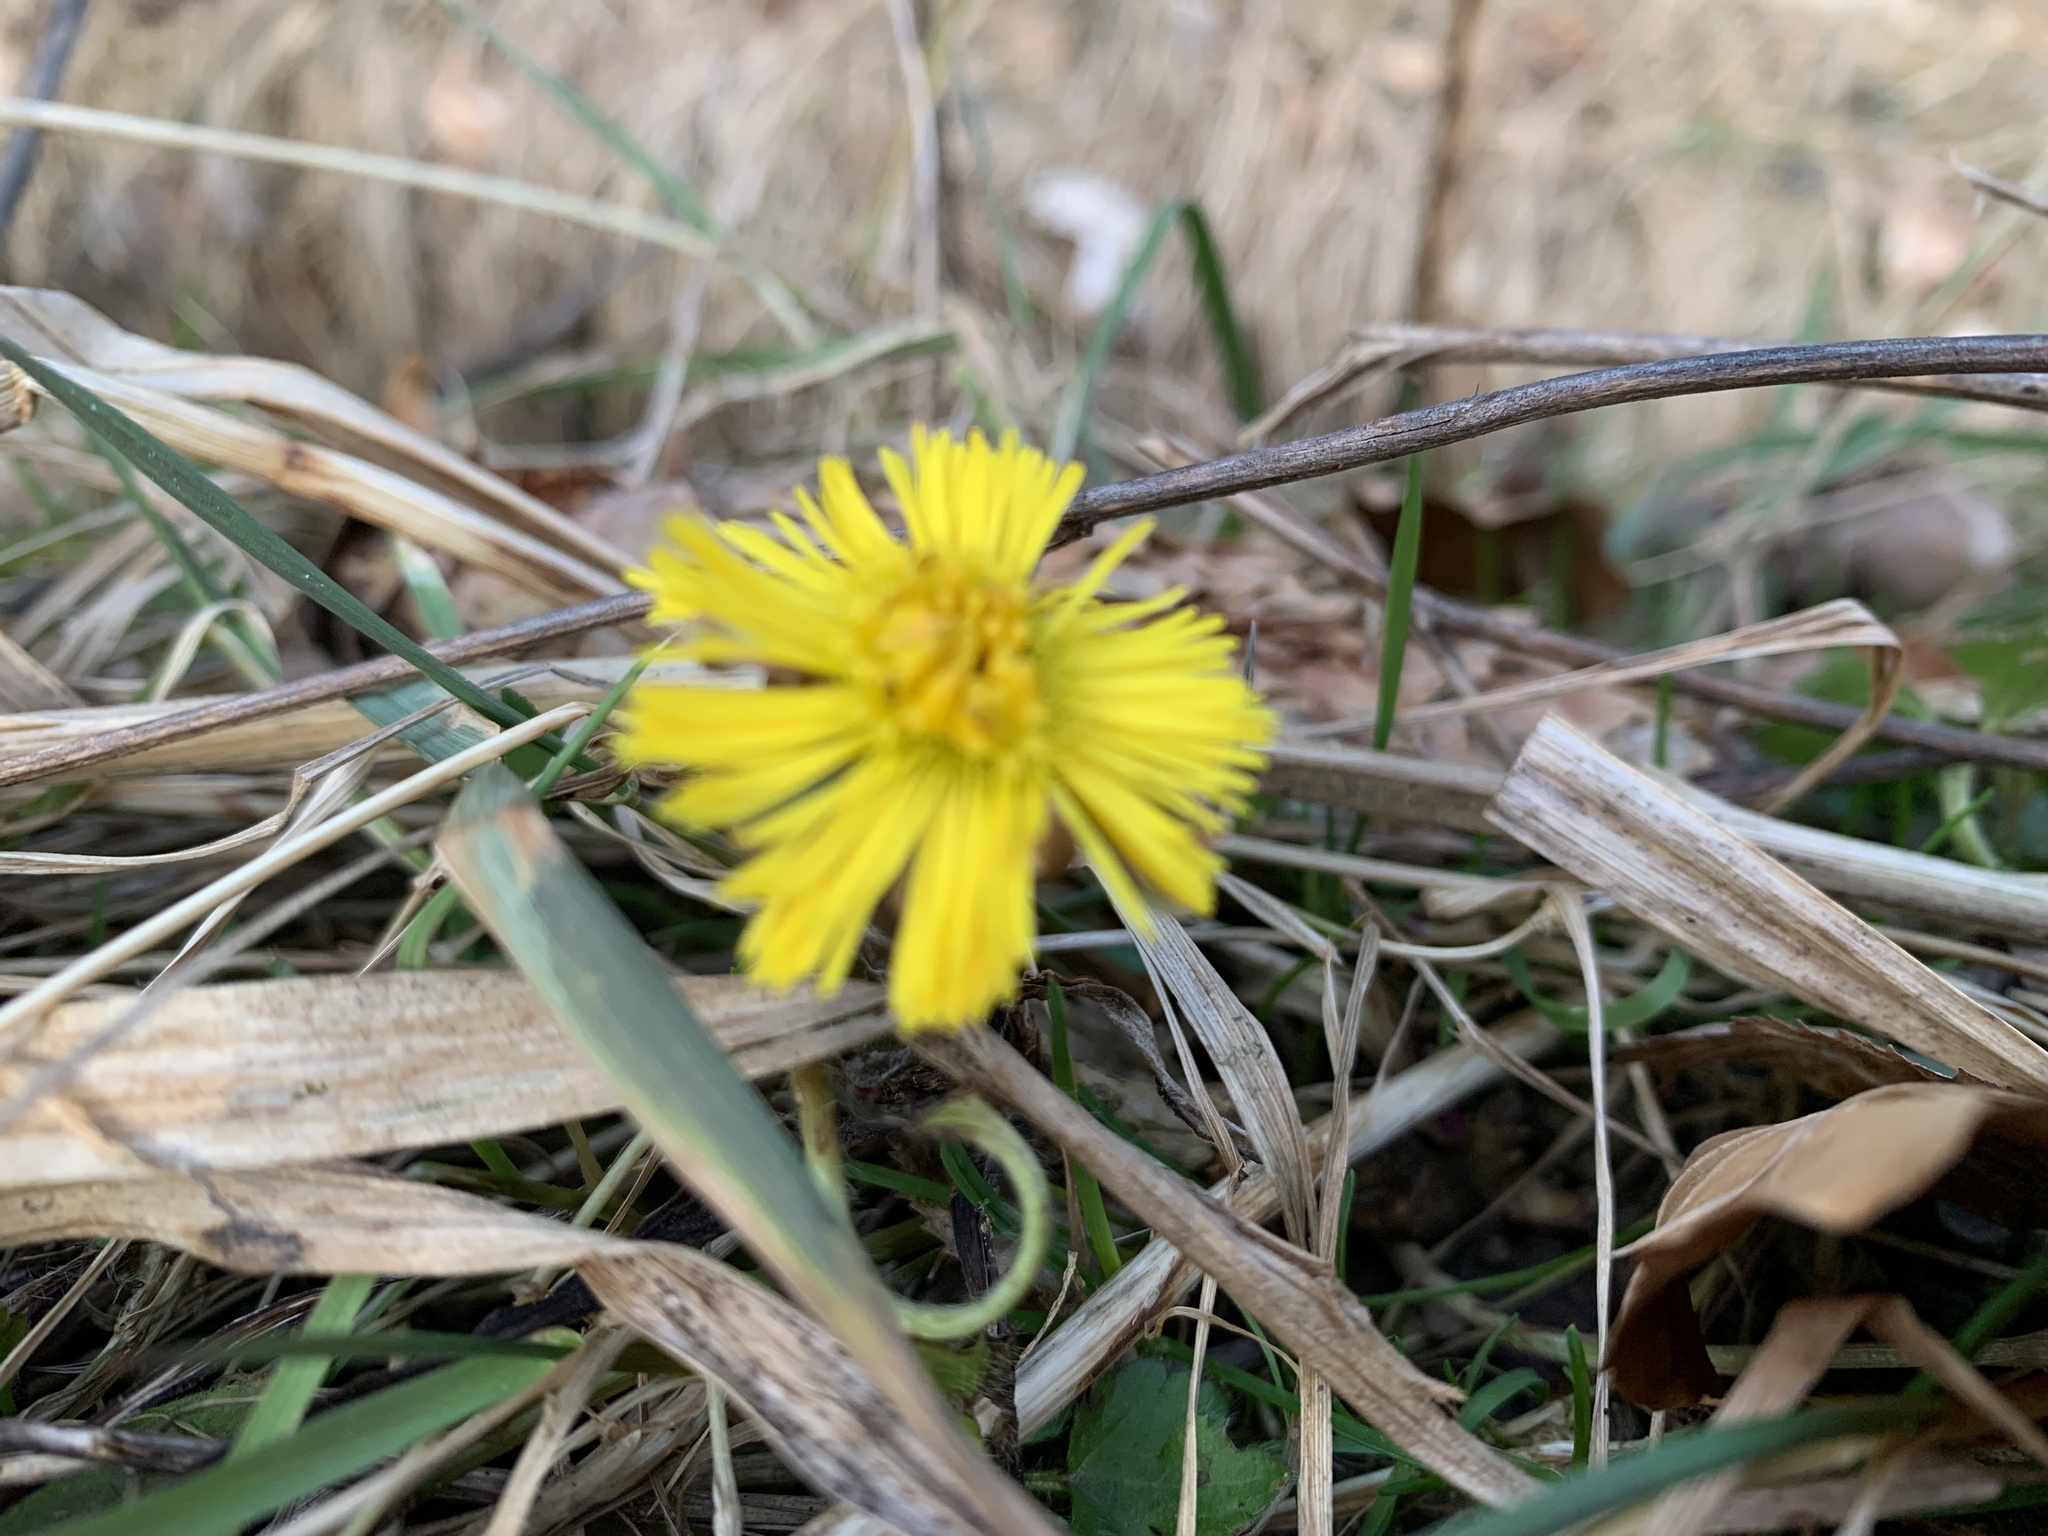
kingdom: Plantae
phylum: Tracheophyta
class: Magnoliopsida
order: Asterales
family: Asteraceae
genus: Tussilago
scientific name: Tussilago farfara
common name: Coltsfoot
